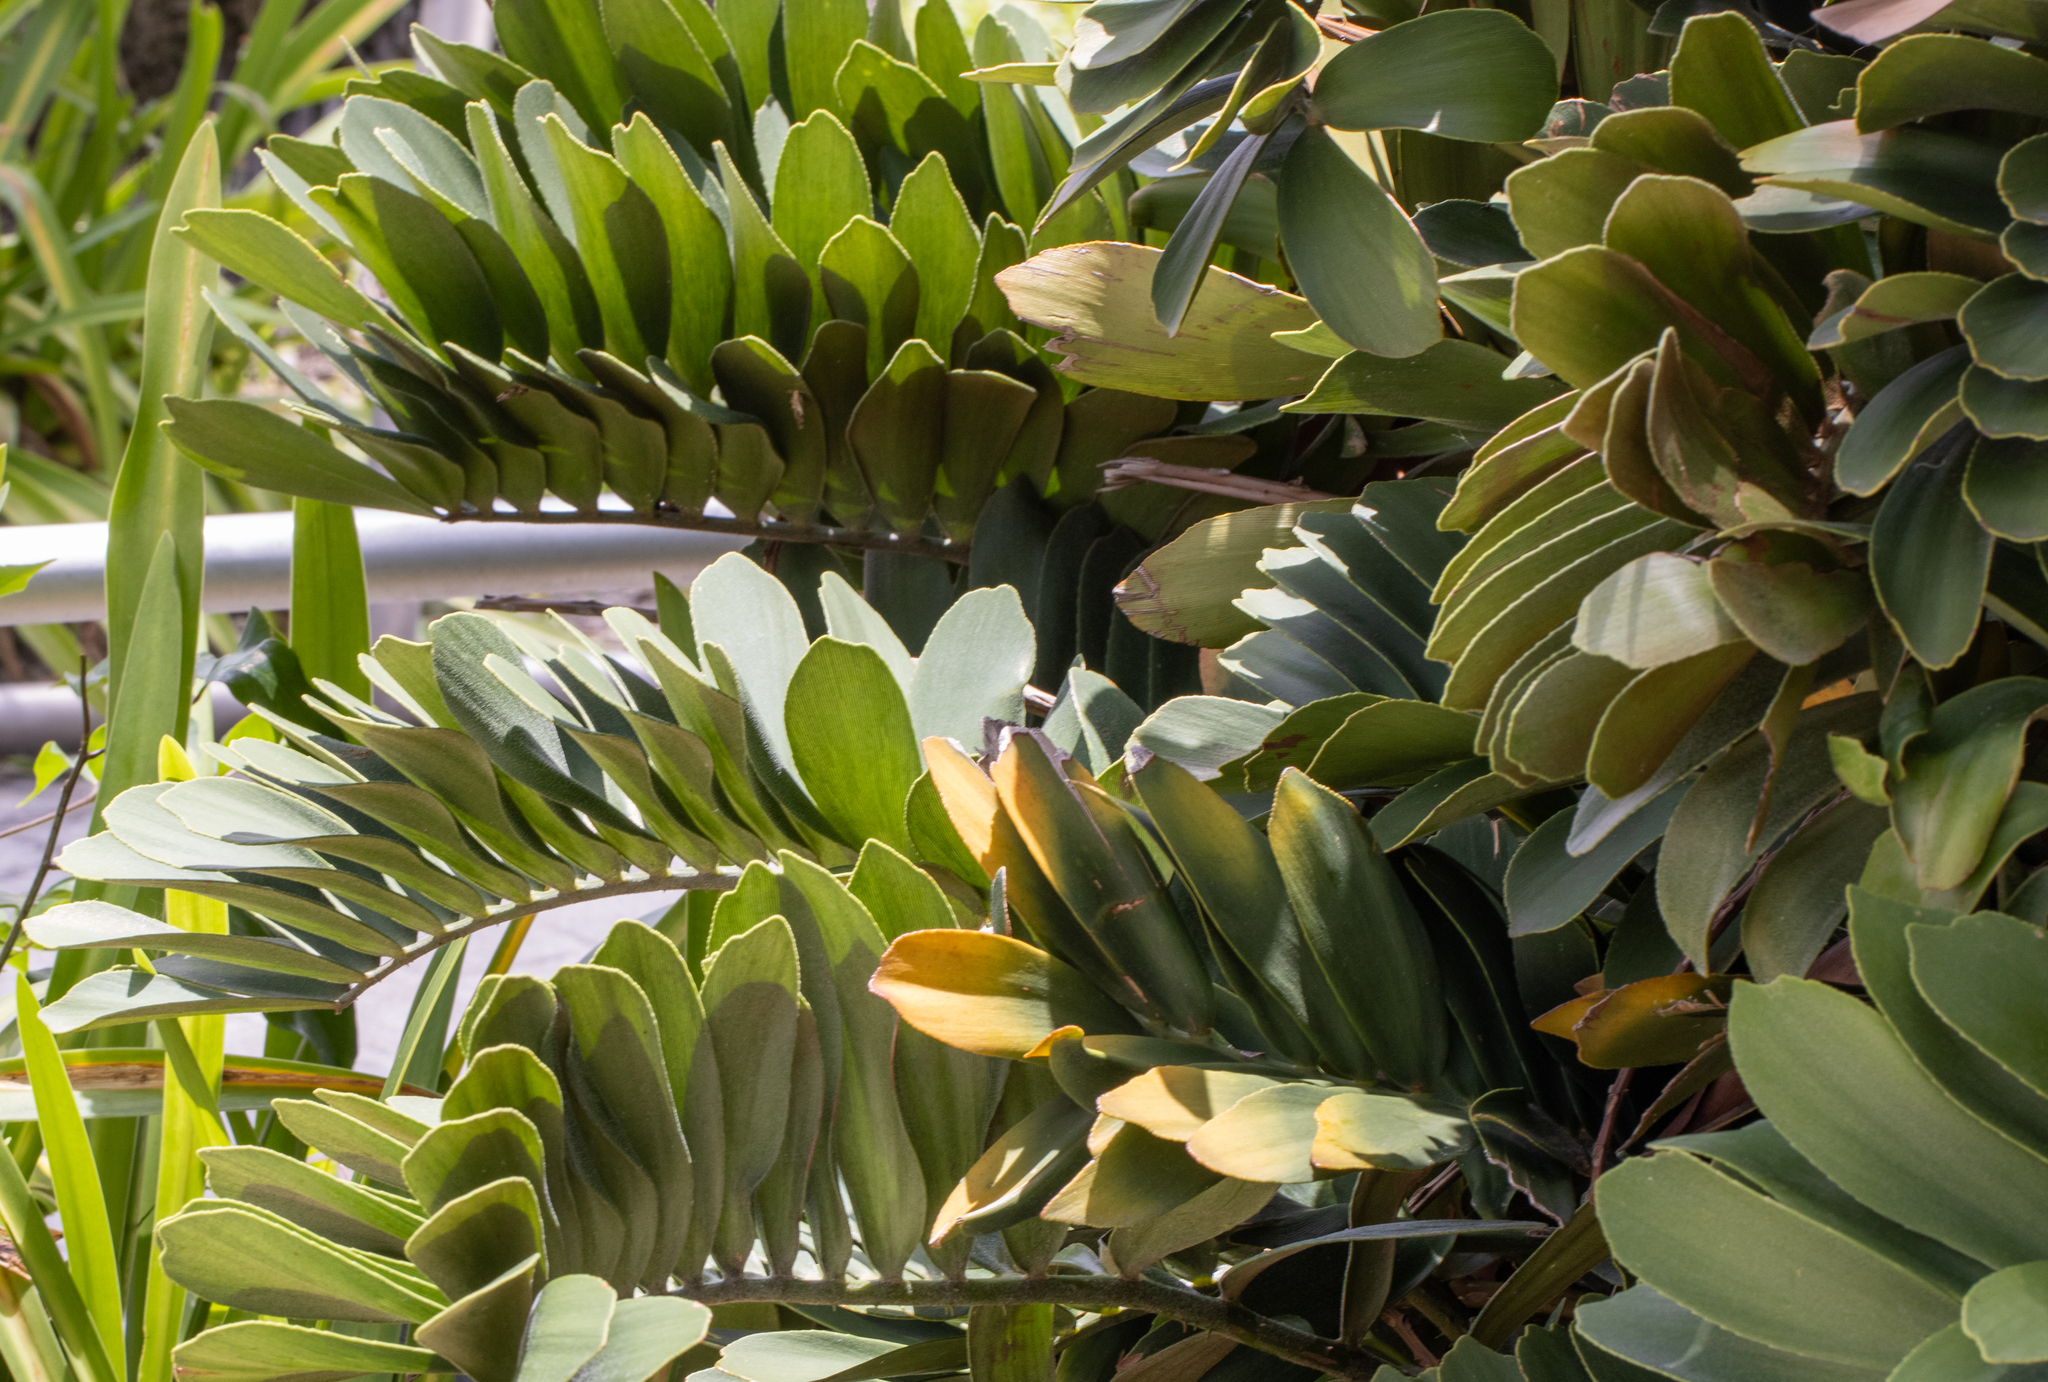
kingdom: Plantae
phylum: Tracheophyta
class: Cycadopsida
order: Cycadales
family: Zamiaceae
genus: Zamia
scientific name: Zamia furfuracea
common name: Cardboard palm
